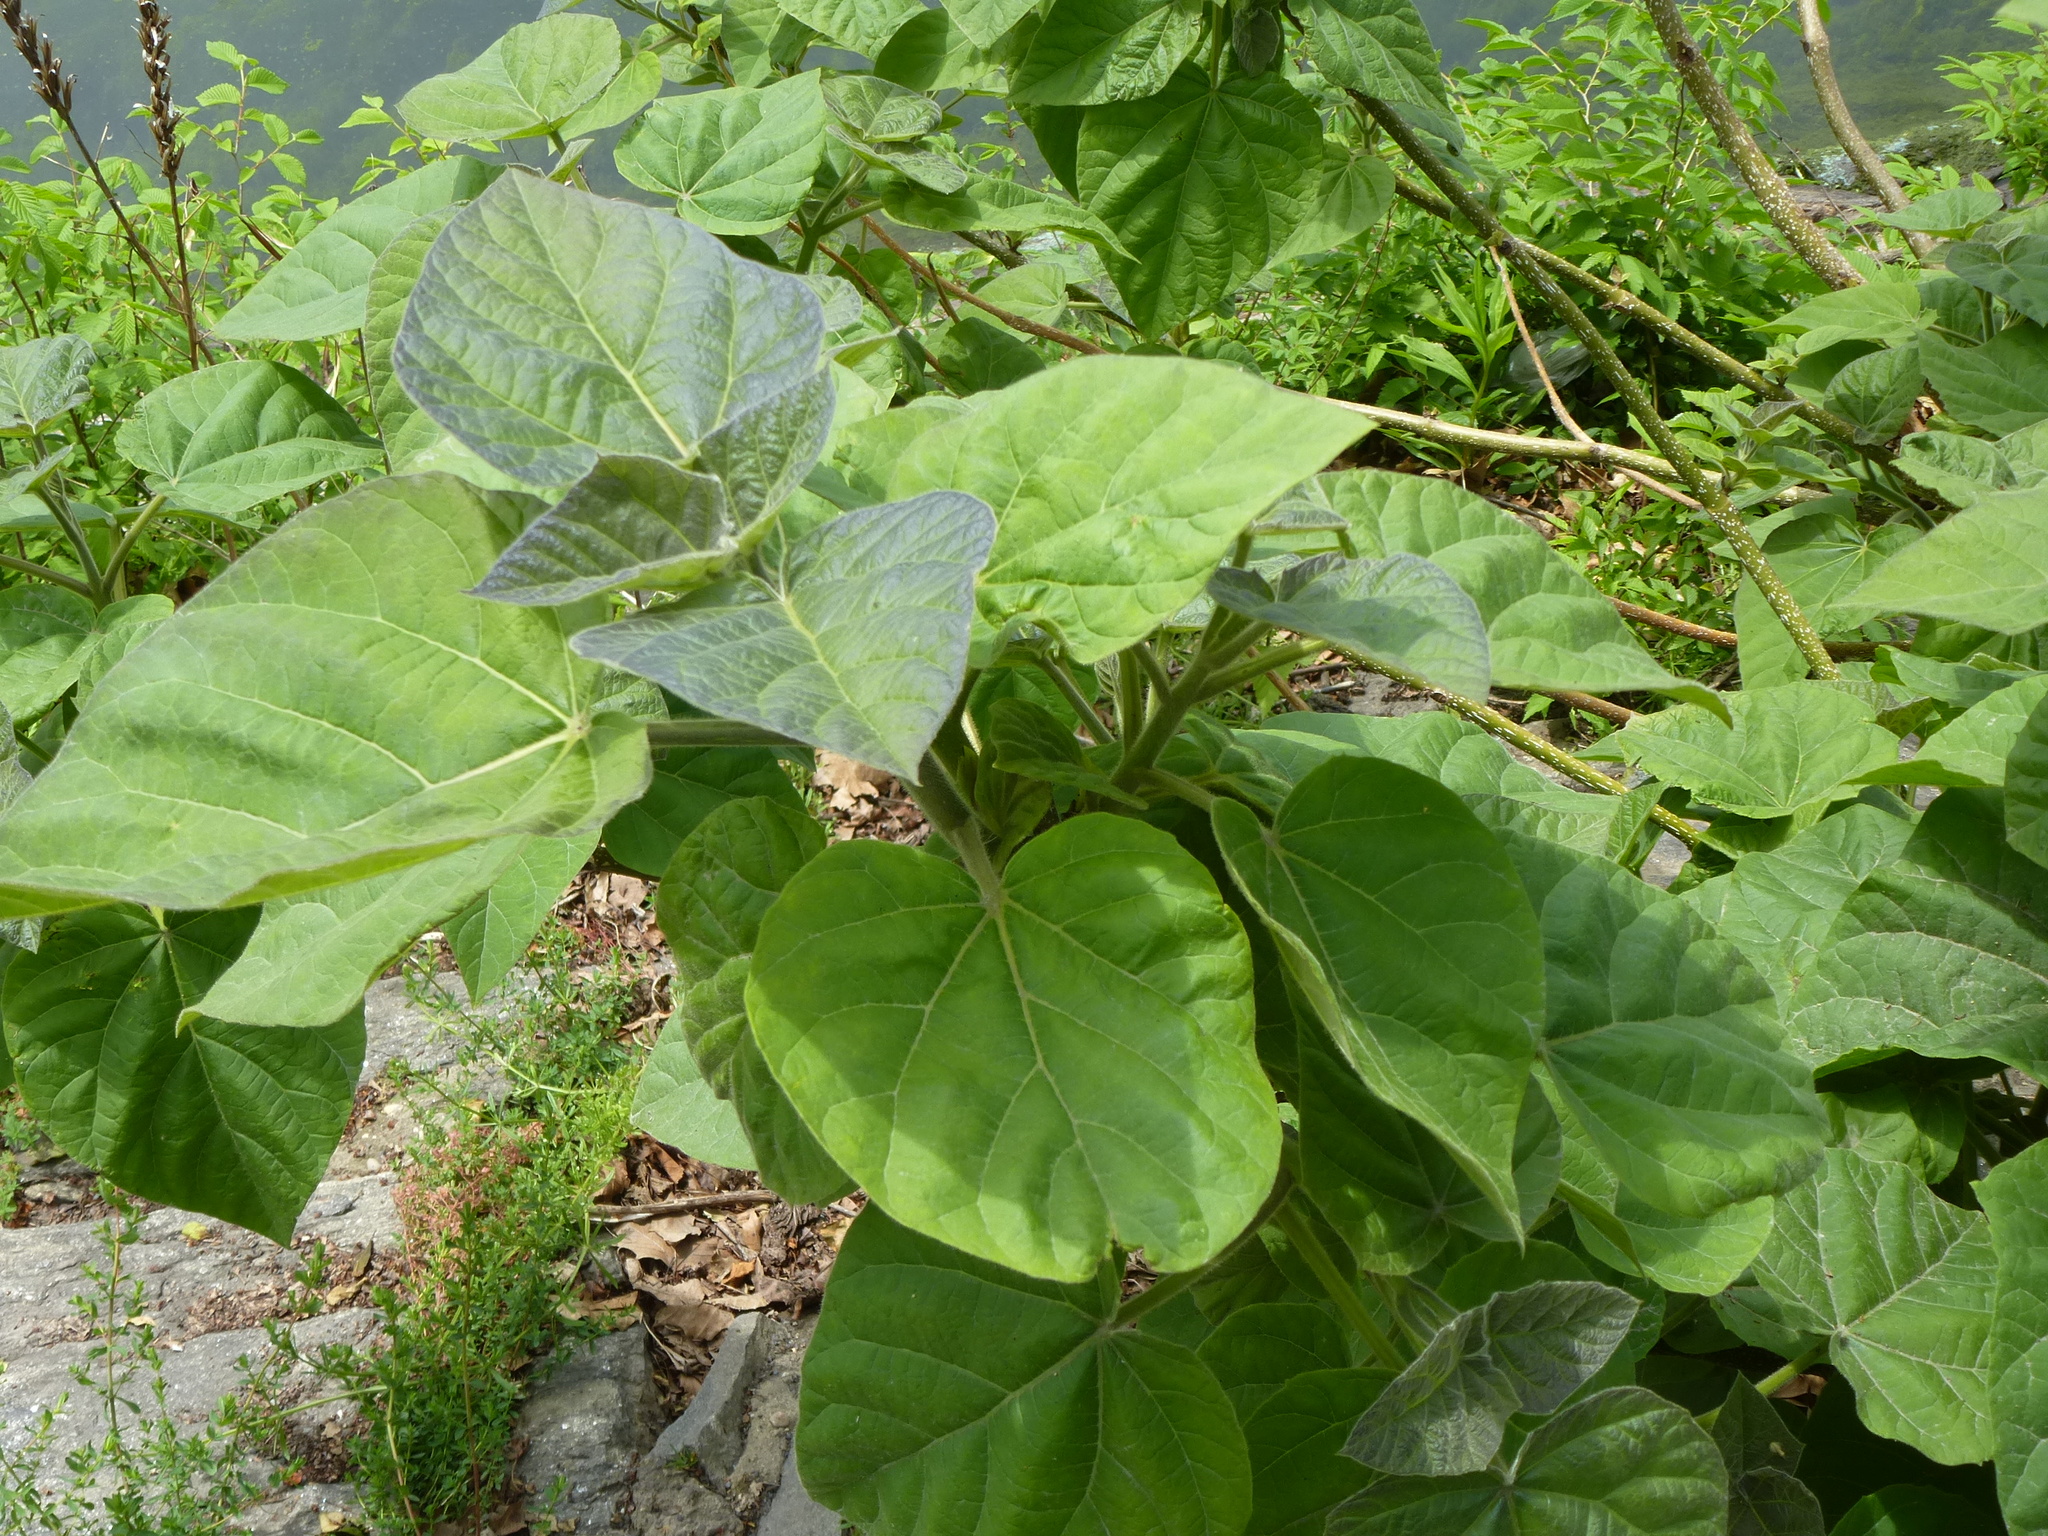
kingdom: Plantae
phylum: Tracheophyta
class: Magnoliopsida
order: Lamiales
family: Paulowniaceae
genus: Paulownia
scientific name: Paulownia tomentosa
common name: Foxglove-tree
